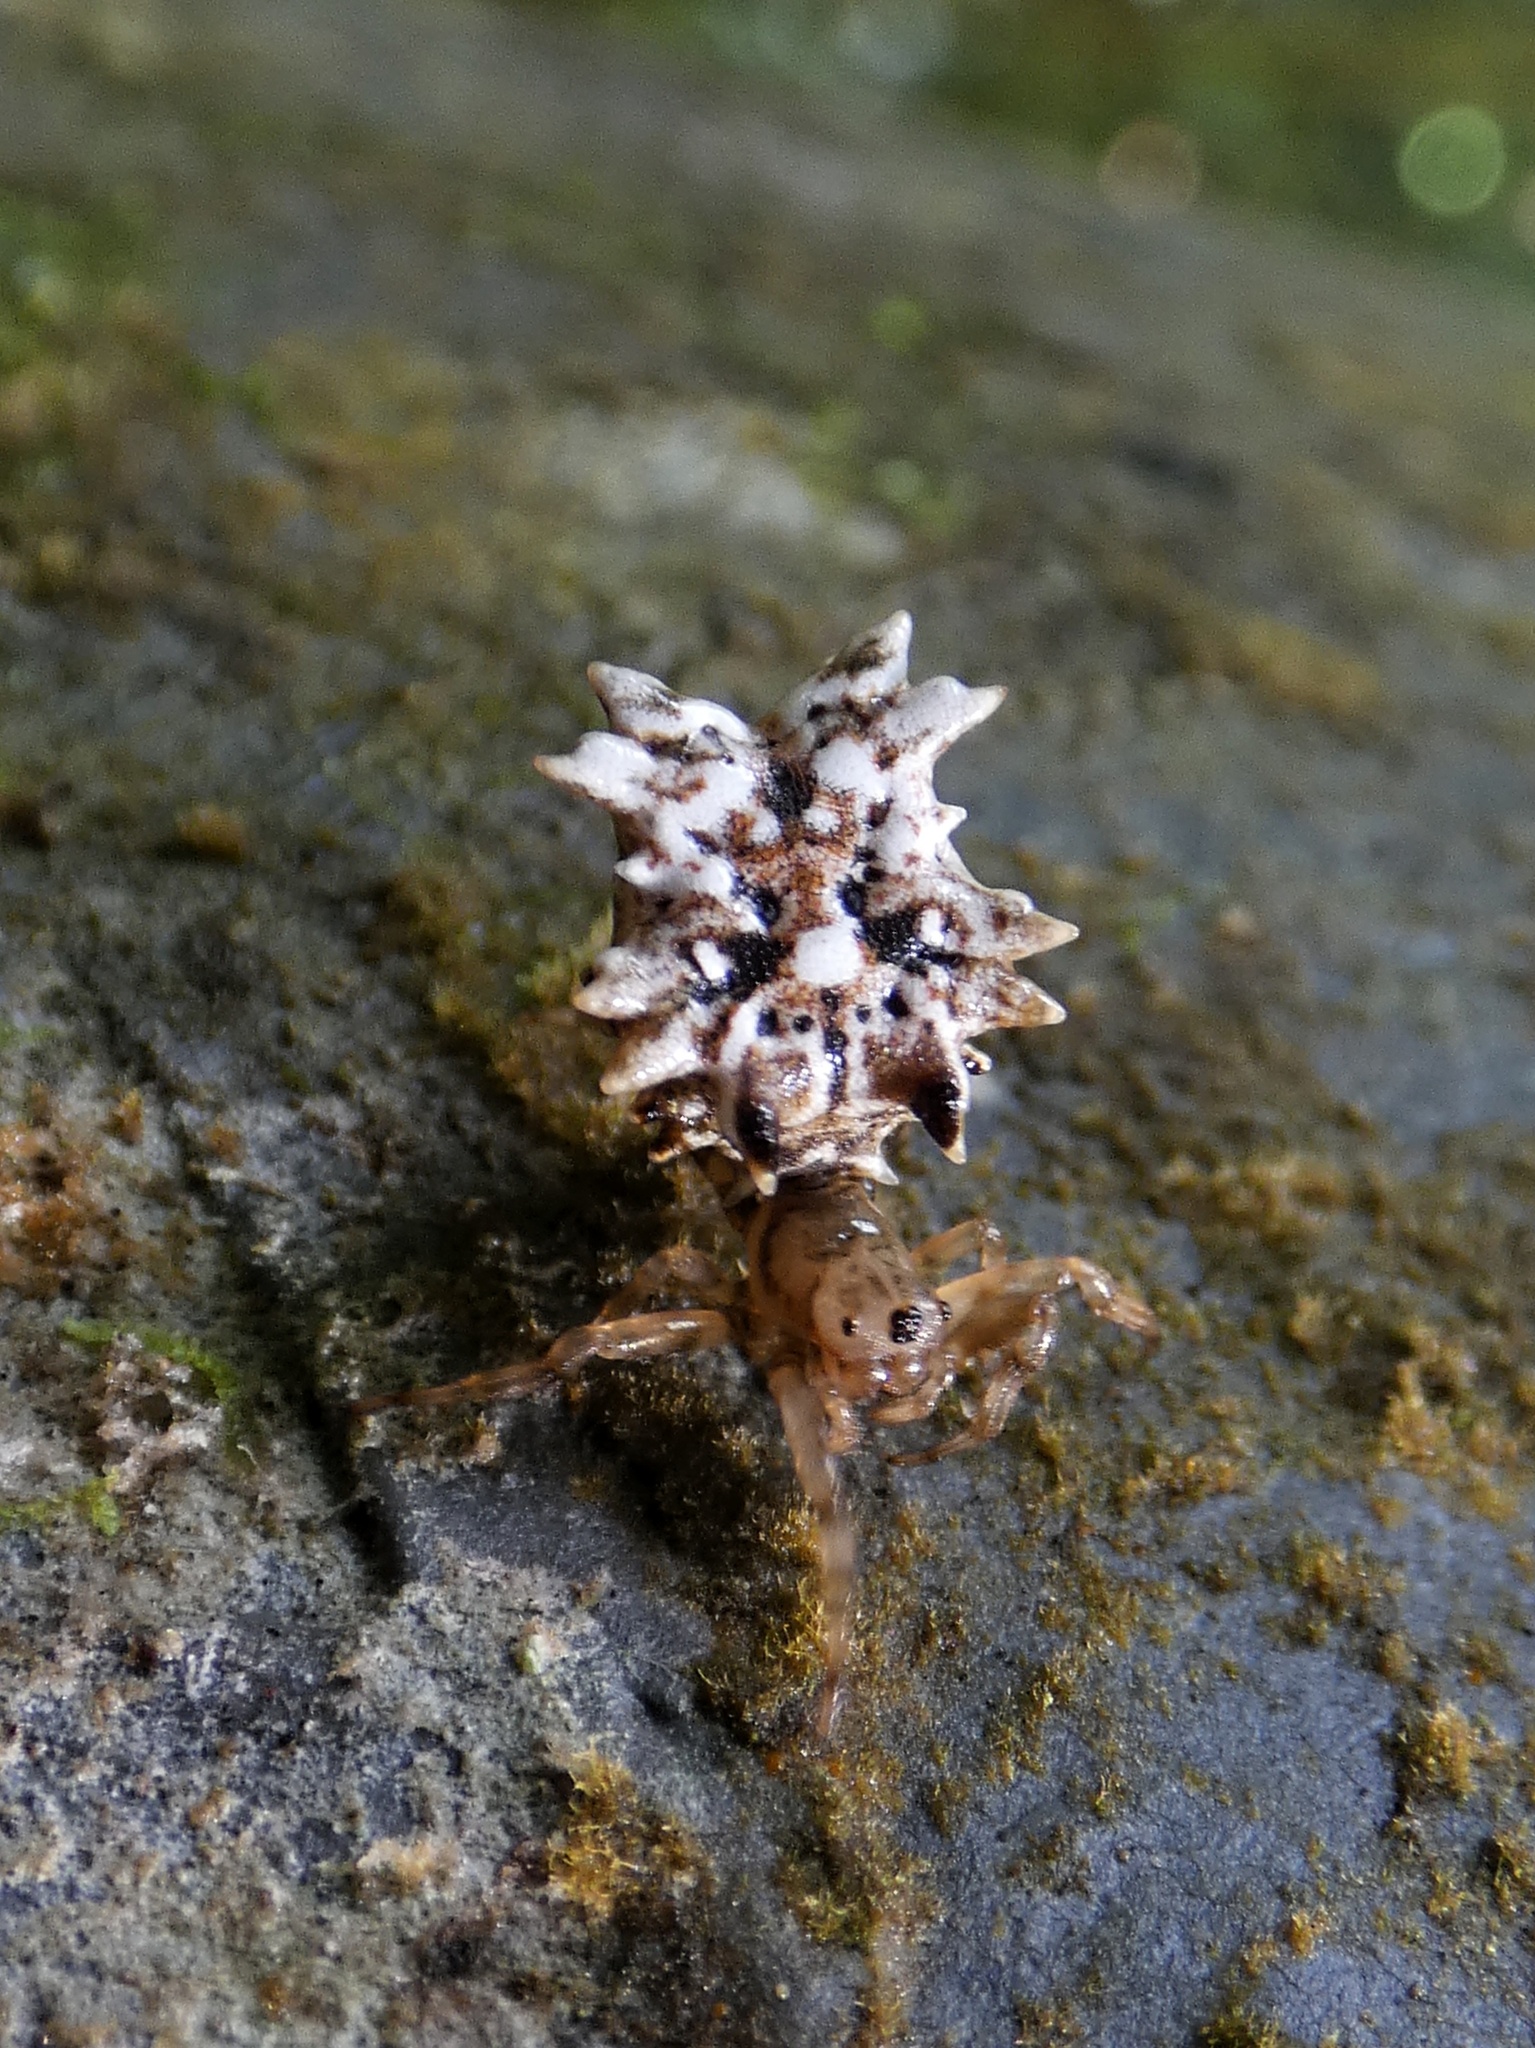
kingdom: Animalia
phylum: Arthropoda
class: Arachnida
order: Araneae
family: Araneidae
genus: Micrathena
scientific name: Micrathena horrida
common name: Orb weavers
